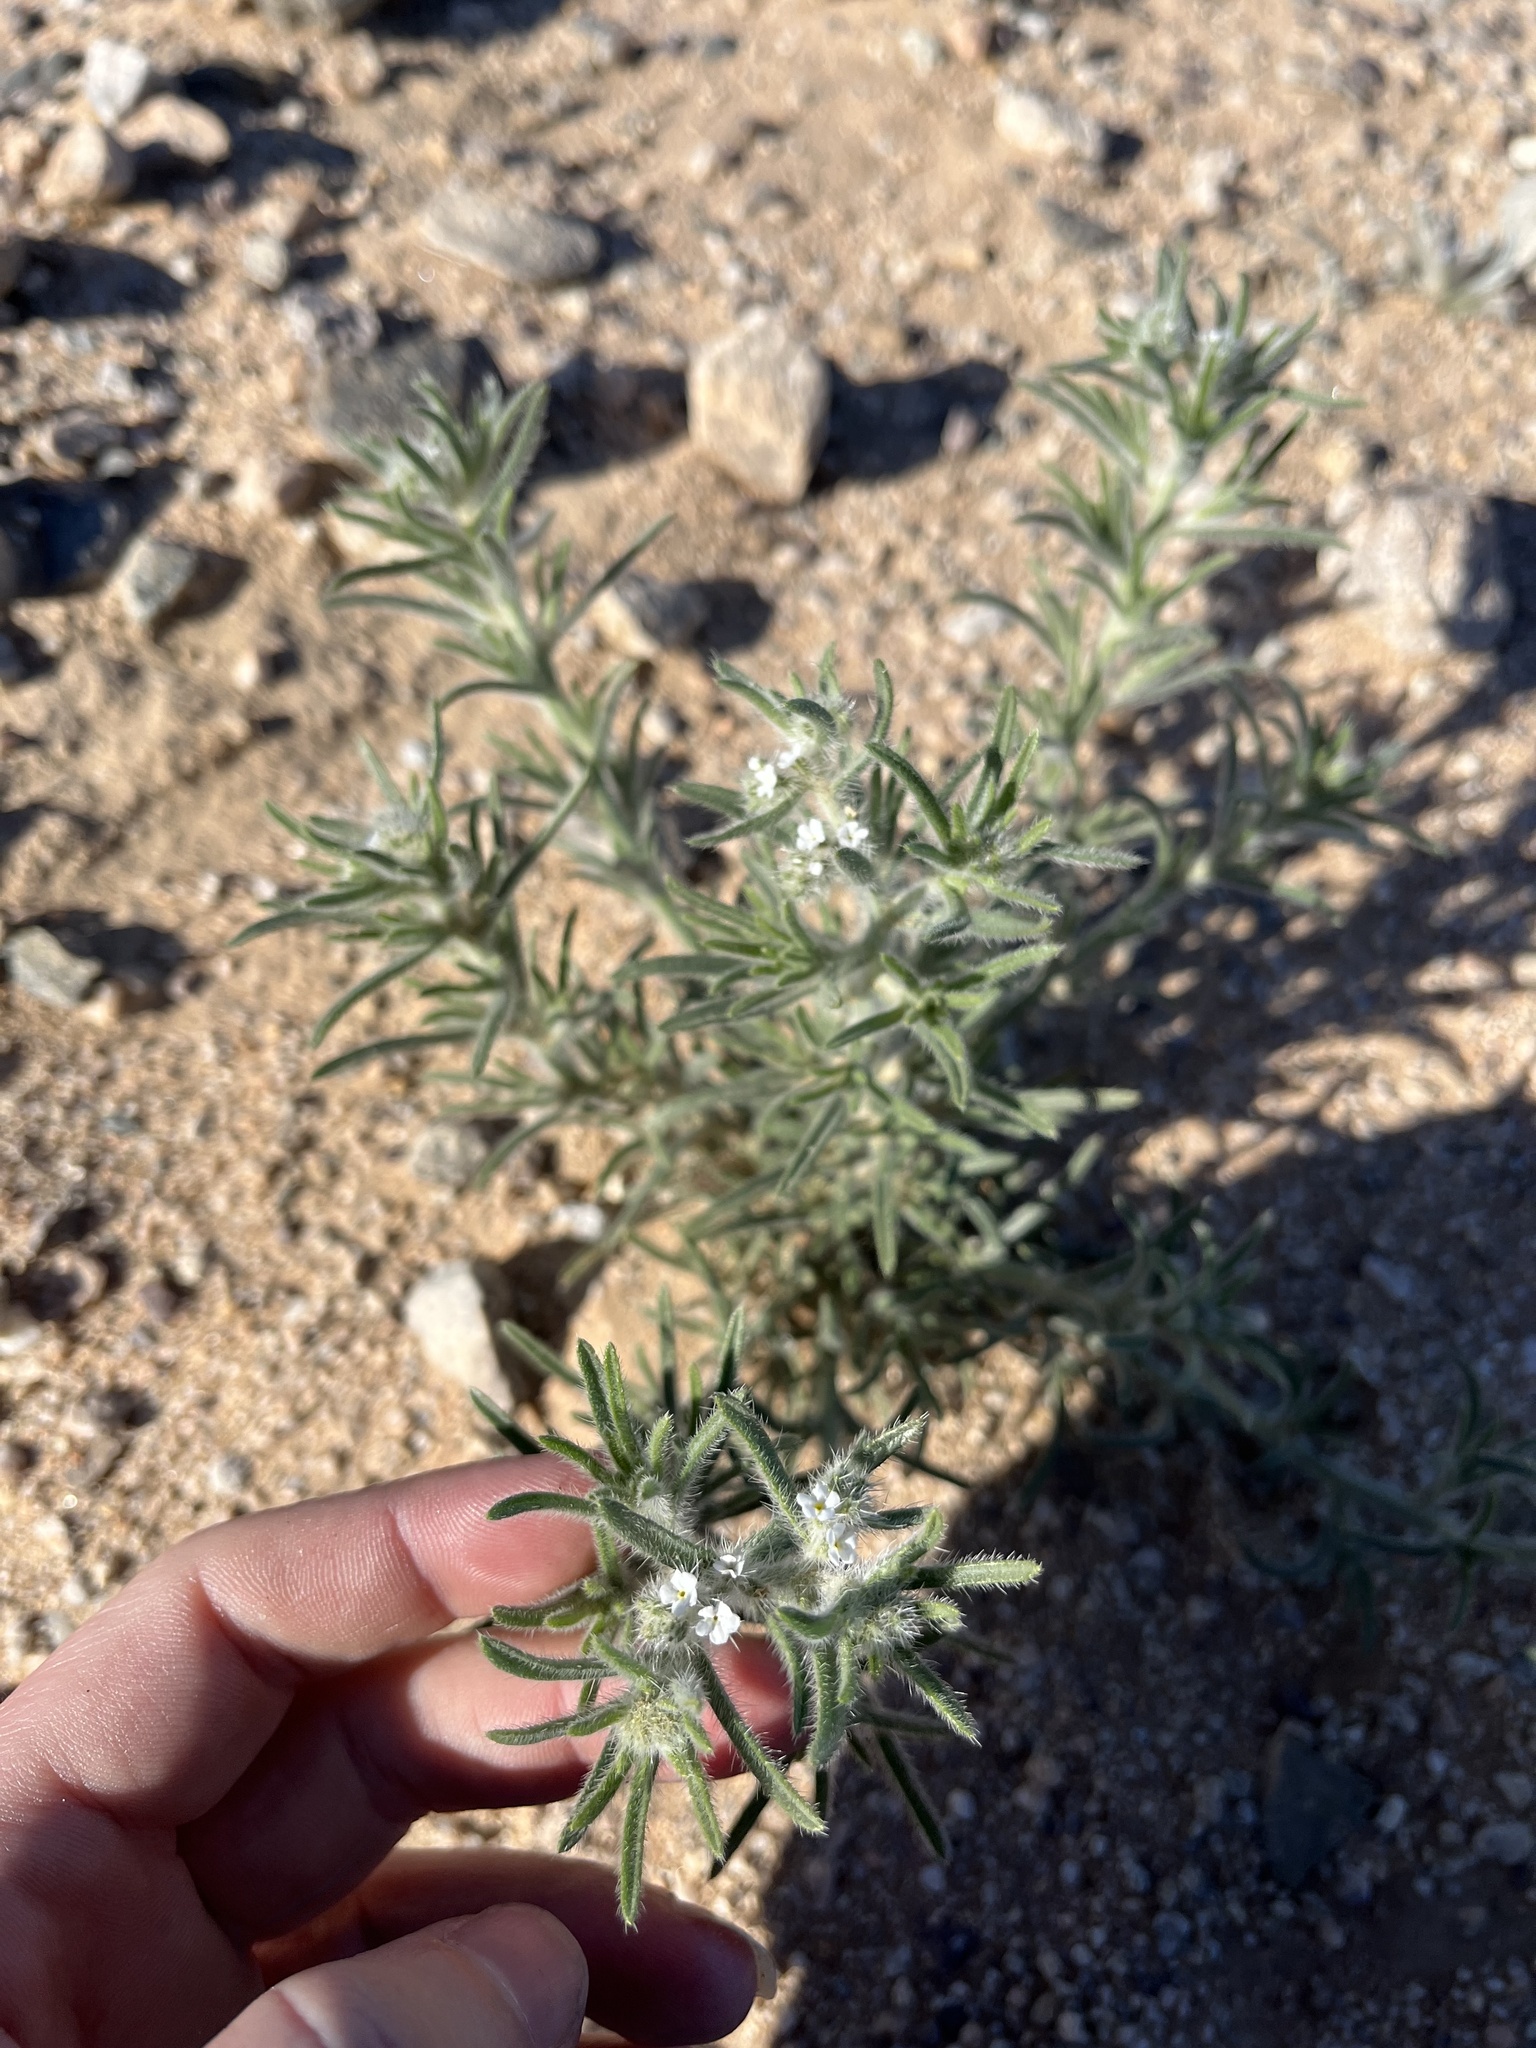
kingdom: Plantae
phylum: Tracheophyta
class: Magnoliopsida
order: Boraginales
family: Boraginaceae
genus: Johnstonella
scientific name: Johnstonella angustifolia
